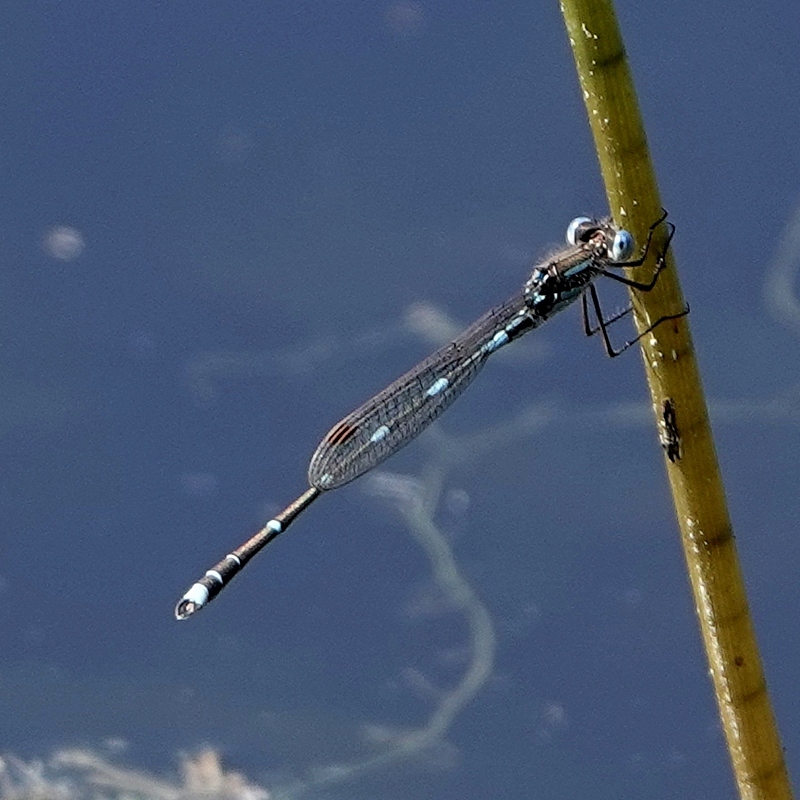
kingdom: Animalia
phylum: Arthropoda
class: Insecta
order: Odonata
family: Lestidae
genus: Austrolestes
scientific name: Austrolestes leda
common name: Wandering ringtail
